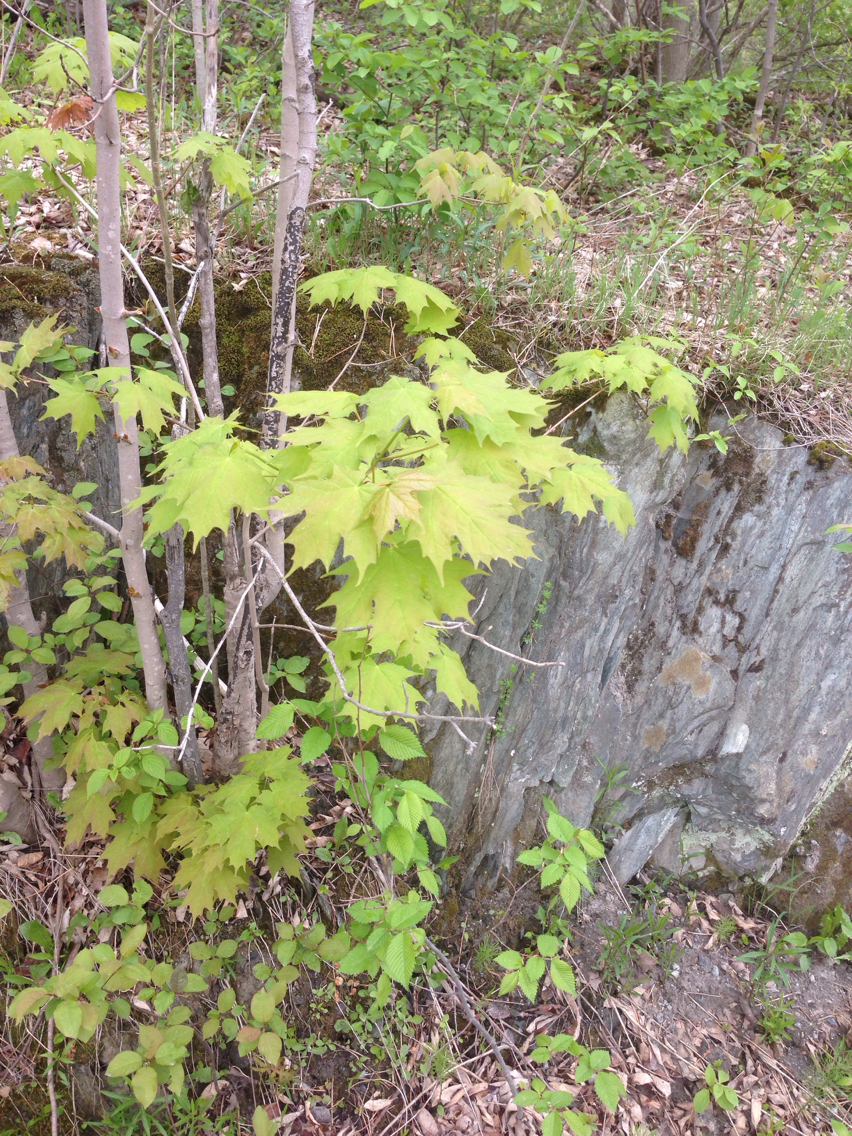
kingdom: Plantae
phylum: Tracheophyta
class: Magnoliopsida
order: Sapindales
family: Sapindaceae
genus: Acer
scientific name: Acer saccharum
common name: Sugar maple
